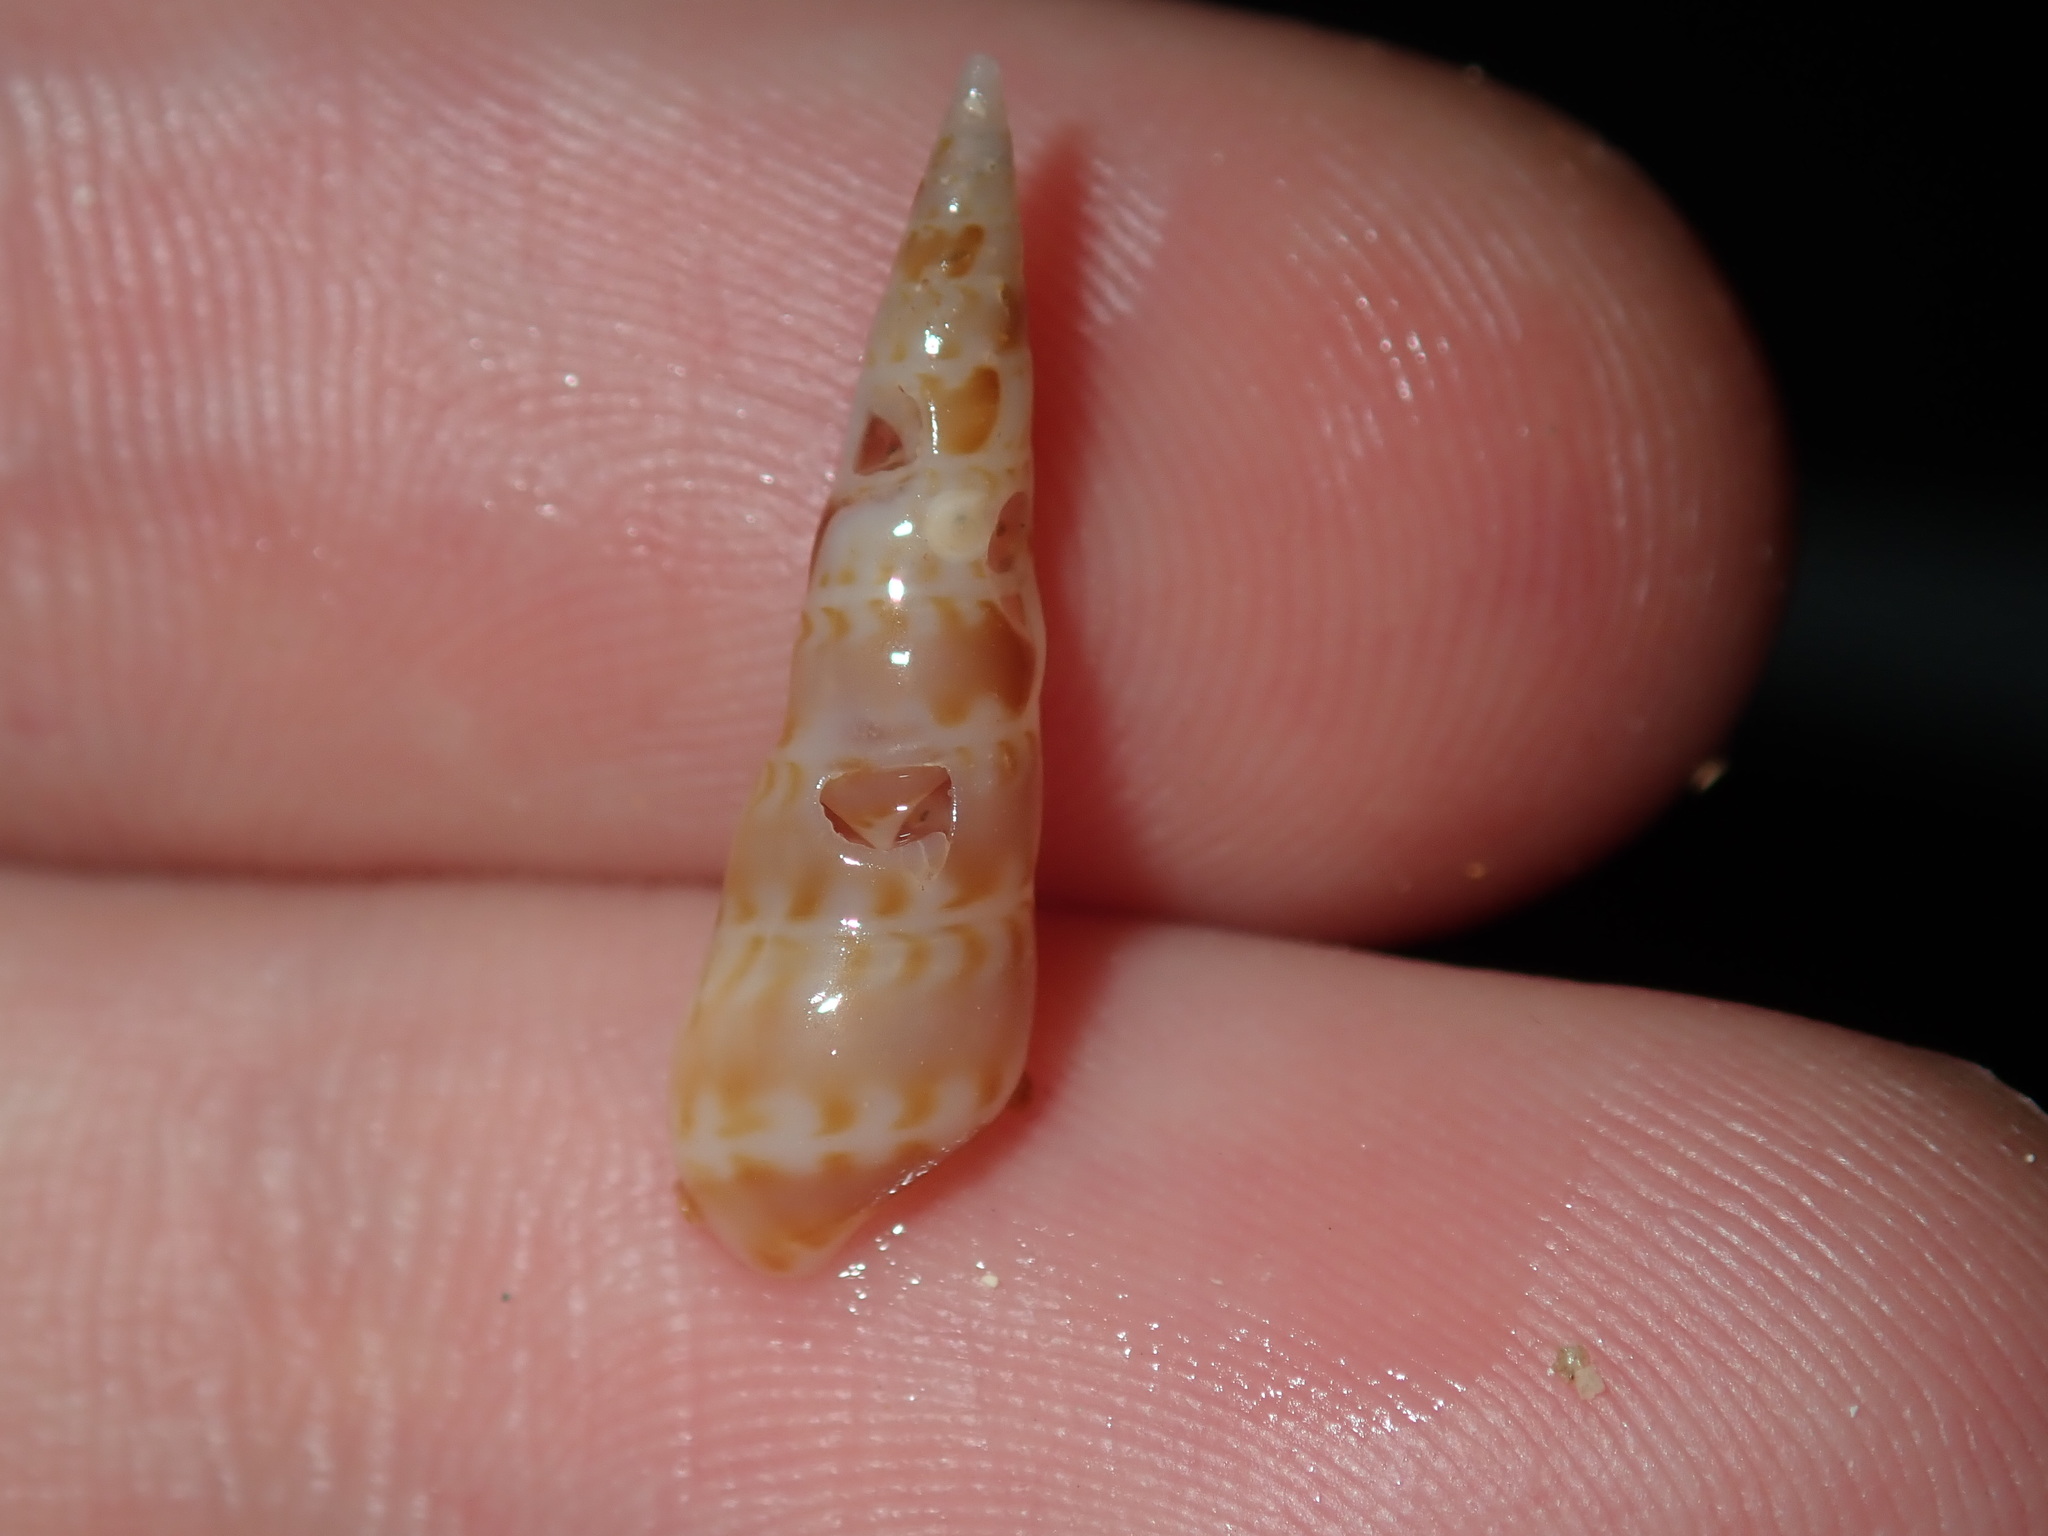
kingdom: Animalia
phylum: Mollusca
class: Gastropoda
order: Littorinimorpha
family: Eulimidae
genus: Pictobalcis
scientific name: Pictobalcis articulata
